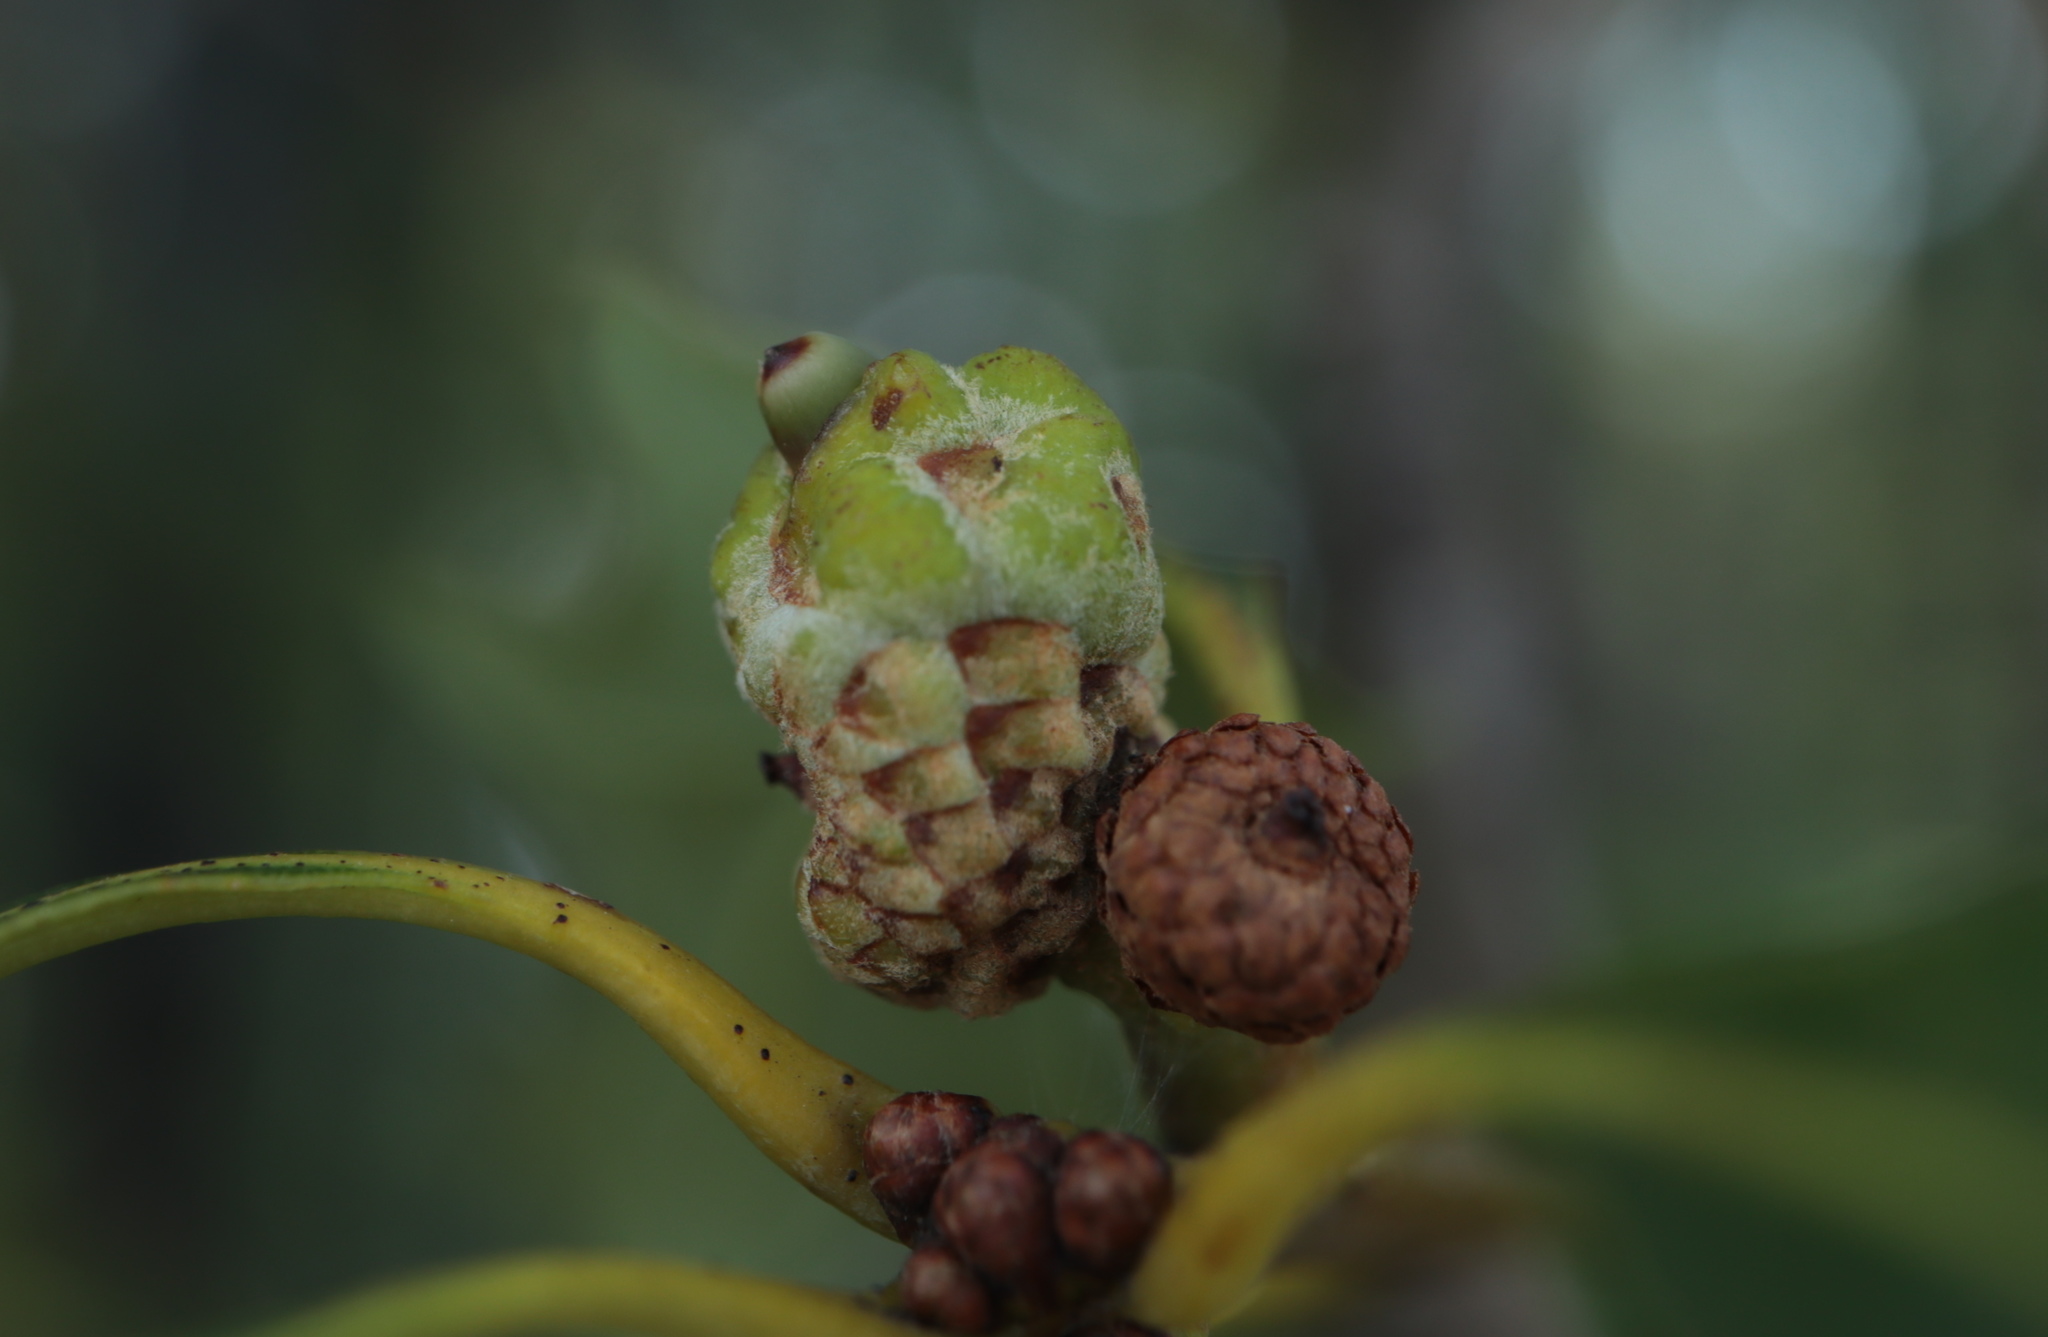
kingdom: Animalia
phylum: Arthropoda
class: Insecta
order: Hymenoptera
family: Cynipidae
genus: Callirhytis
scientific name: Callirhytis glandium
